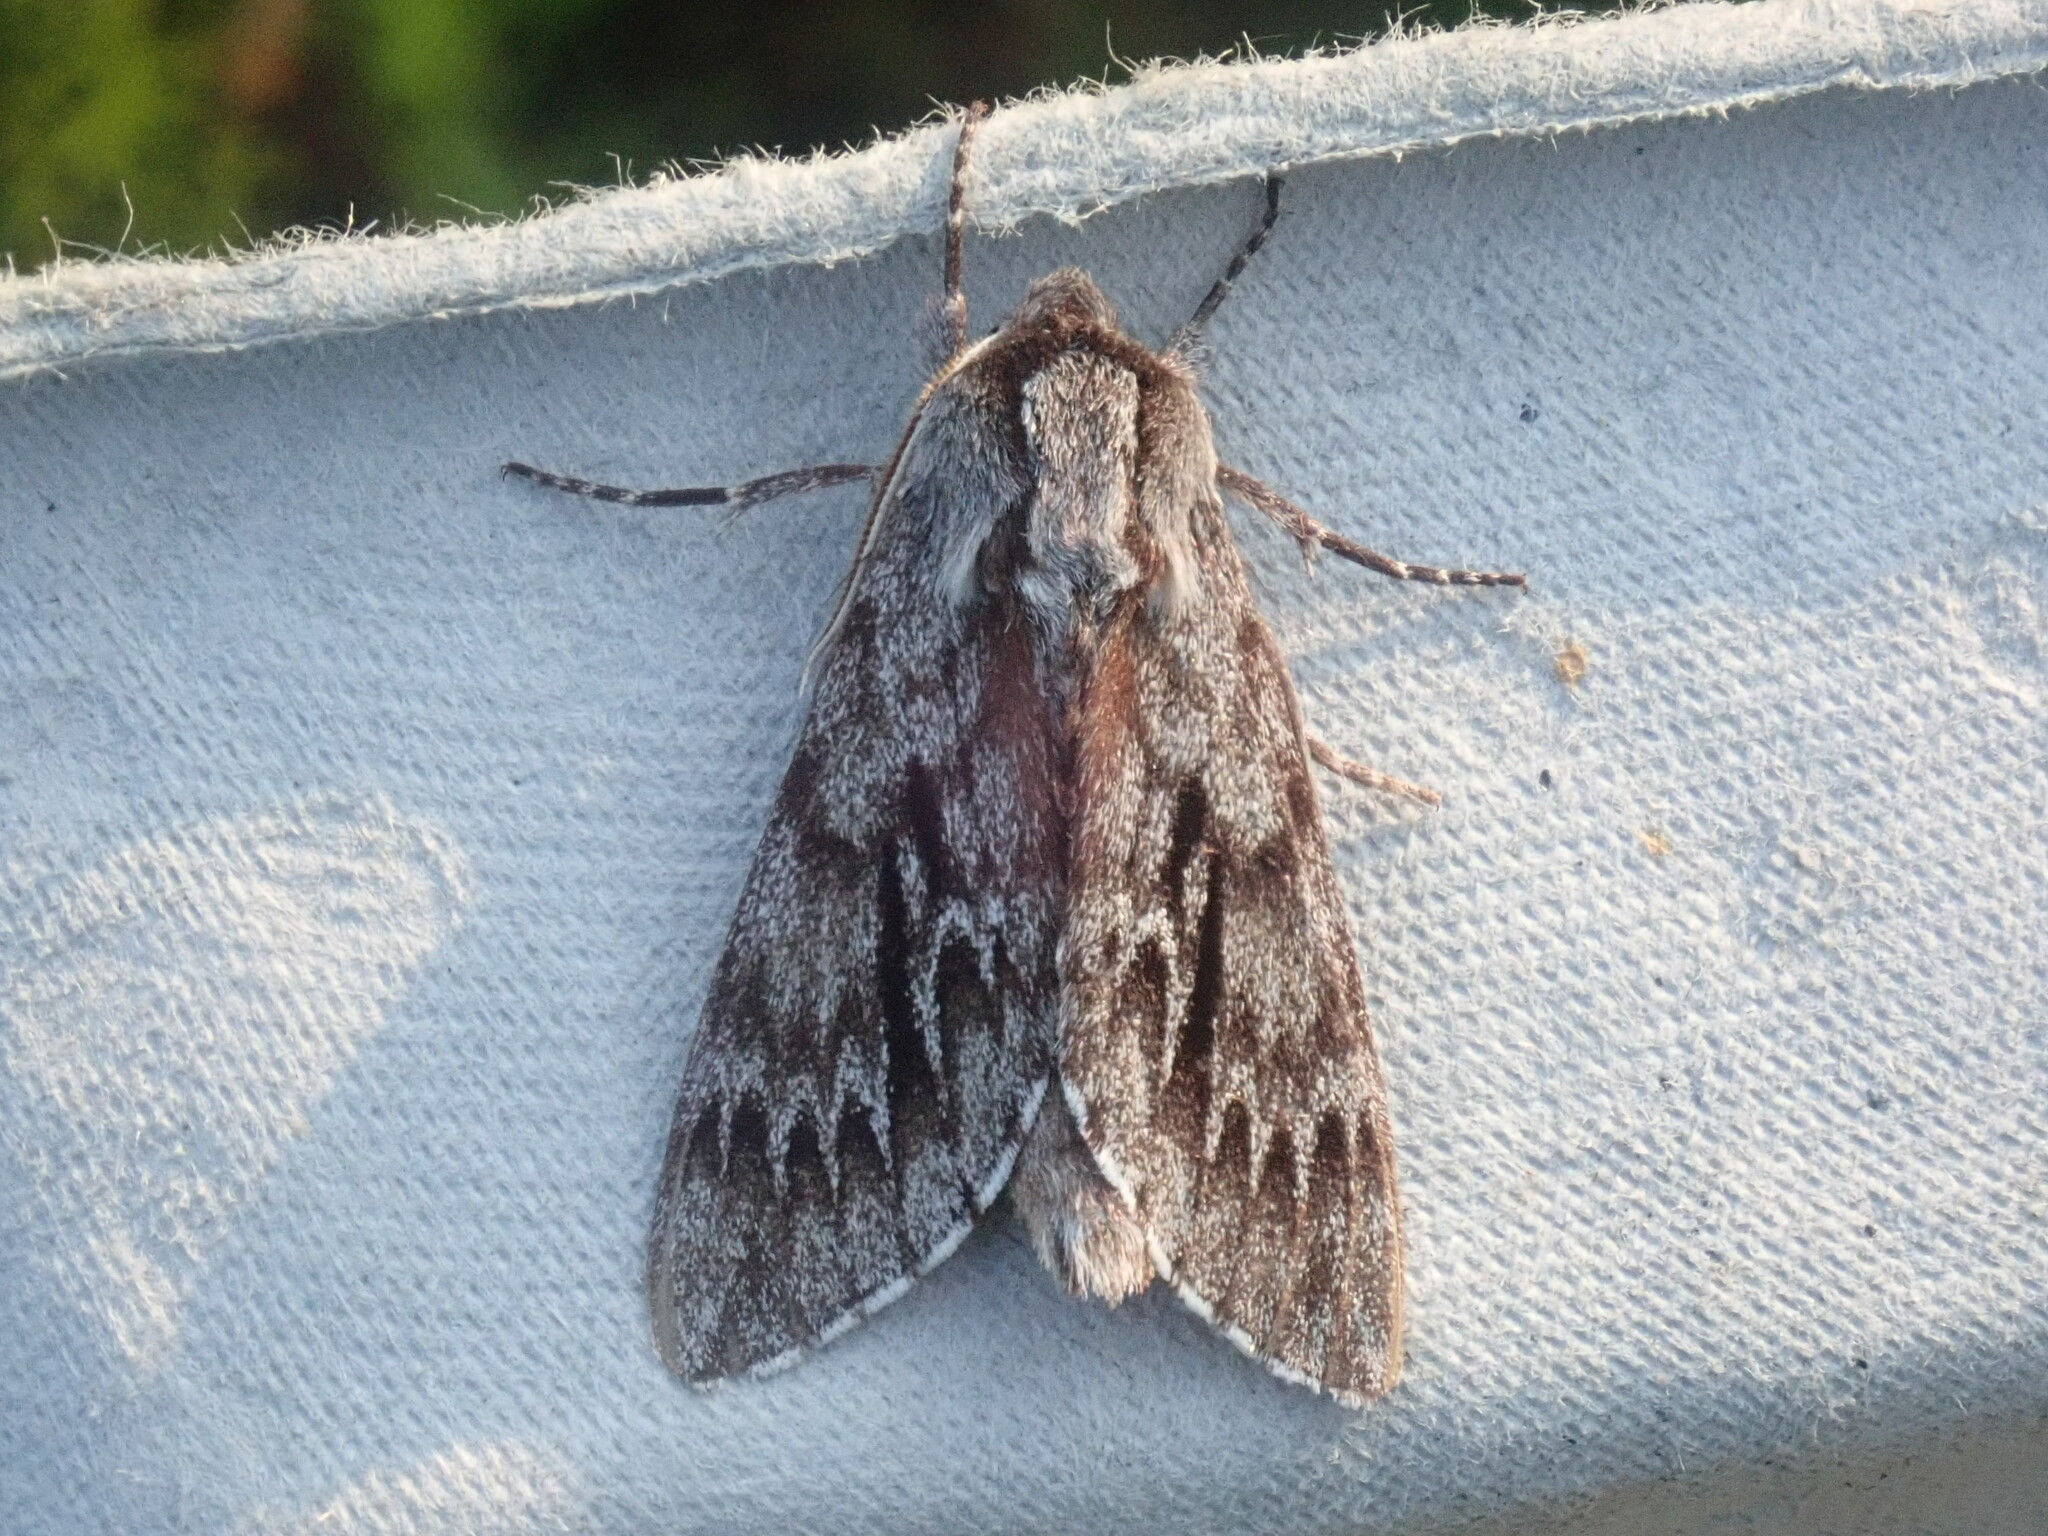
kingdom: Animalia
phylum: Arthropoda
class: Insecta
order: Lepidoptera
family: Sphingidae
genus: Lapara
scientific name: Lapara bombycoides
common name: Northern pine sphinx
